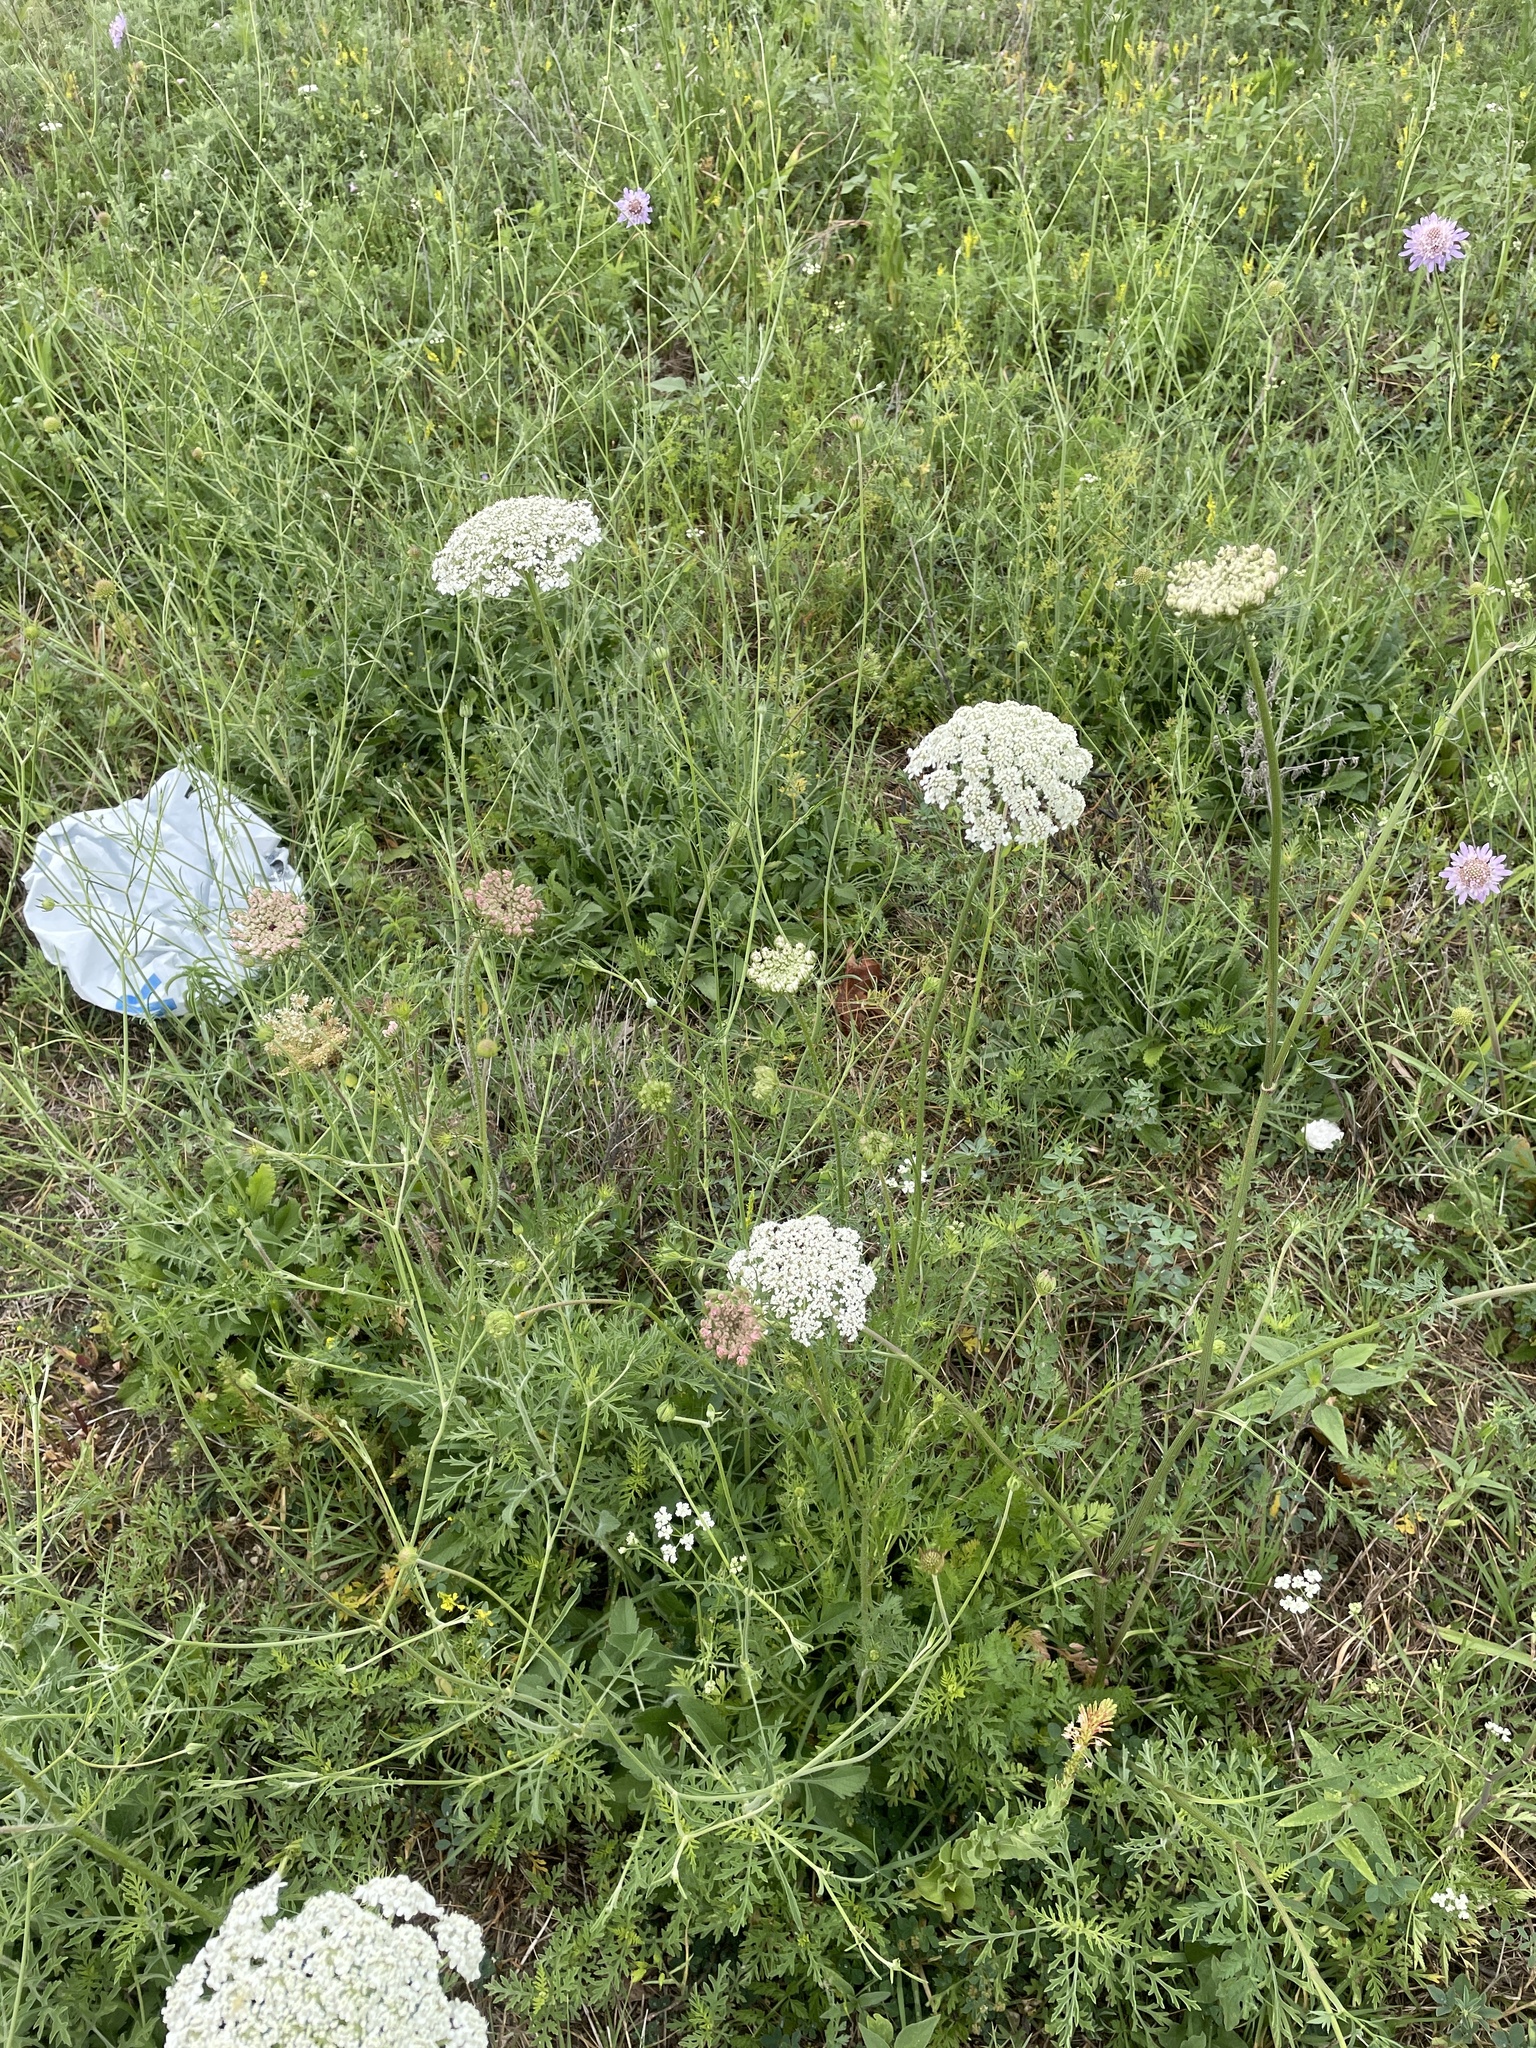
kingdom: Plantae
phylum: Tracheophyta
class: Magnoliopsida
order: Apiales
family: Apiaceae
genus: Daucus
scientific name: Daucus carota
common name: Wild carrot
